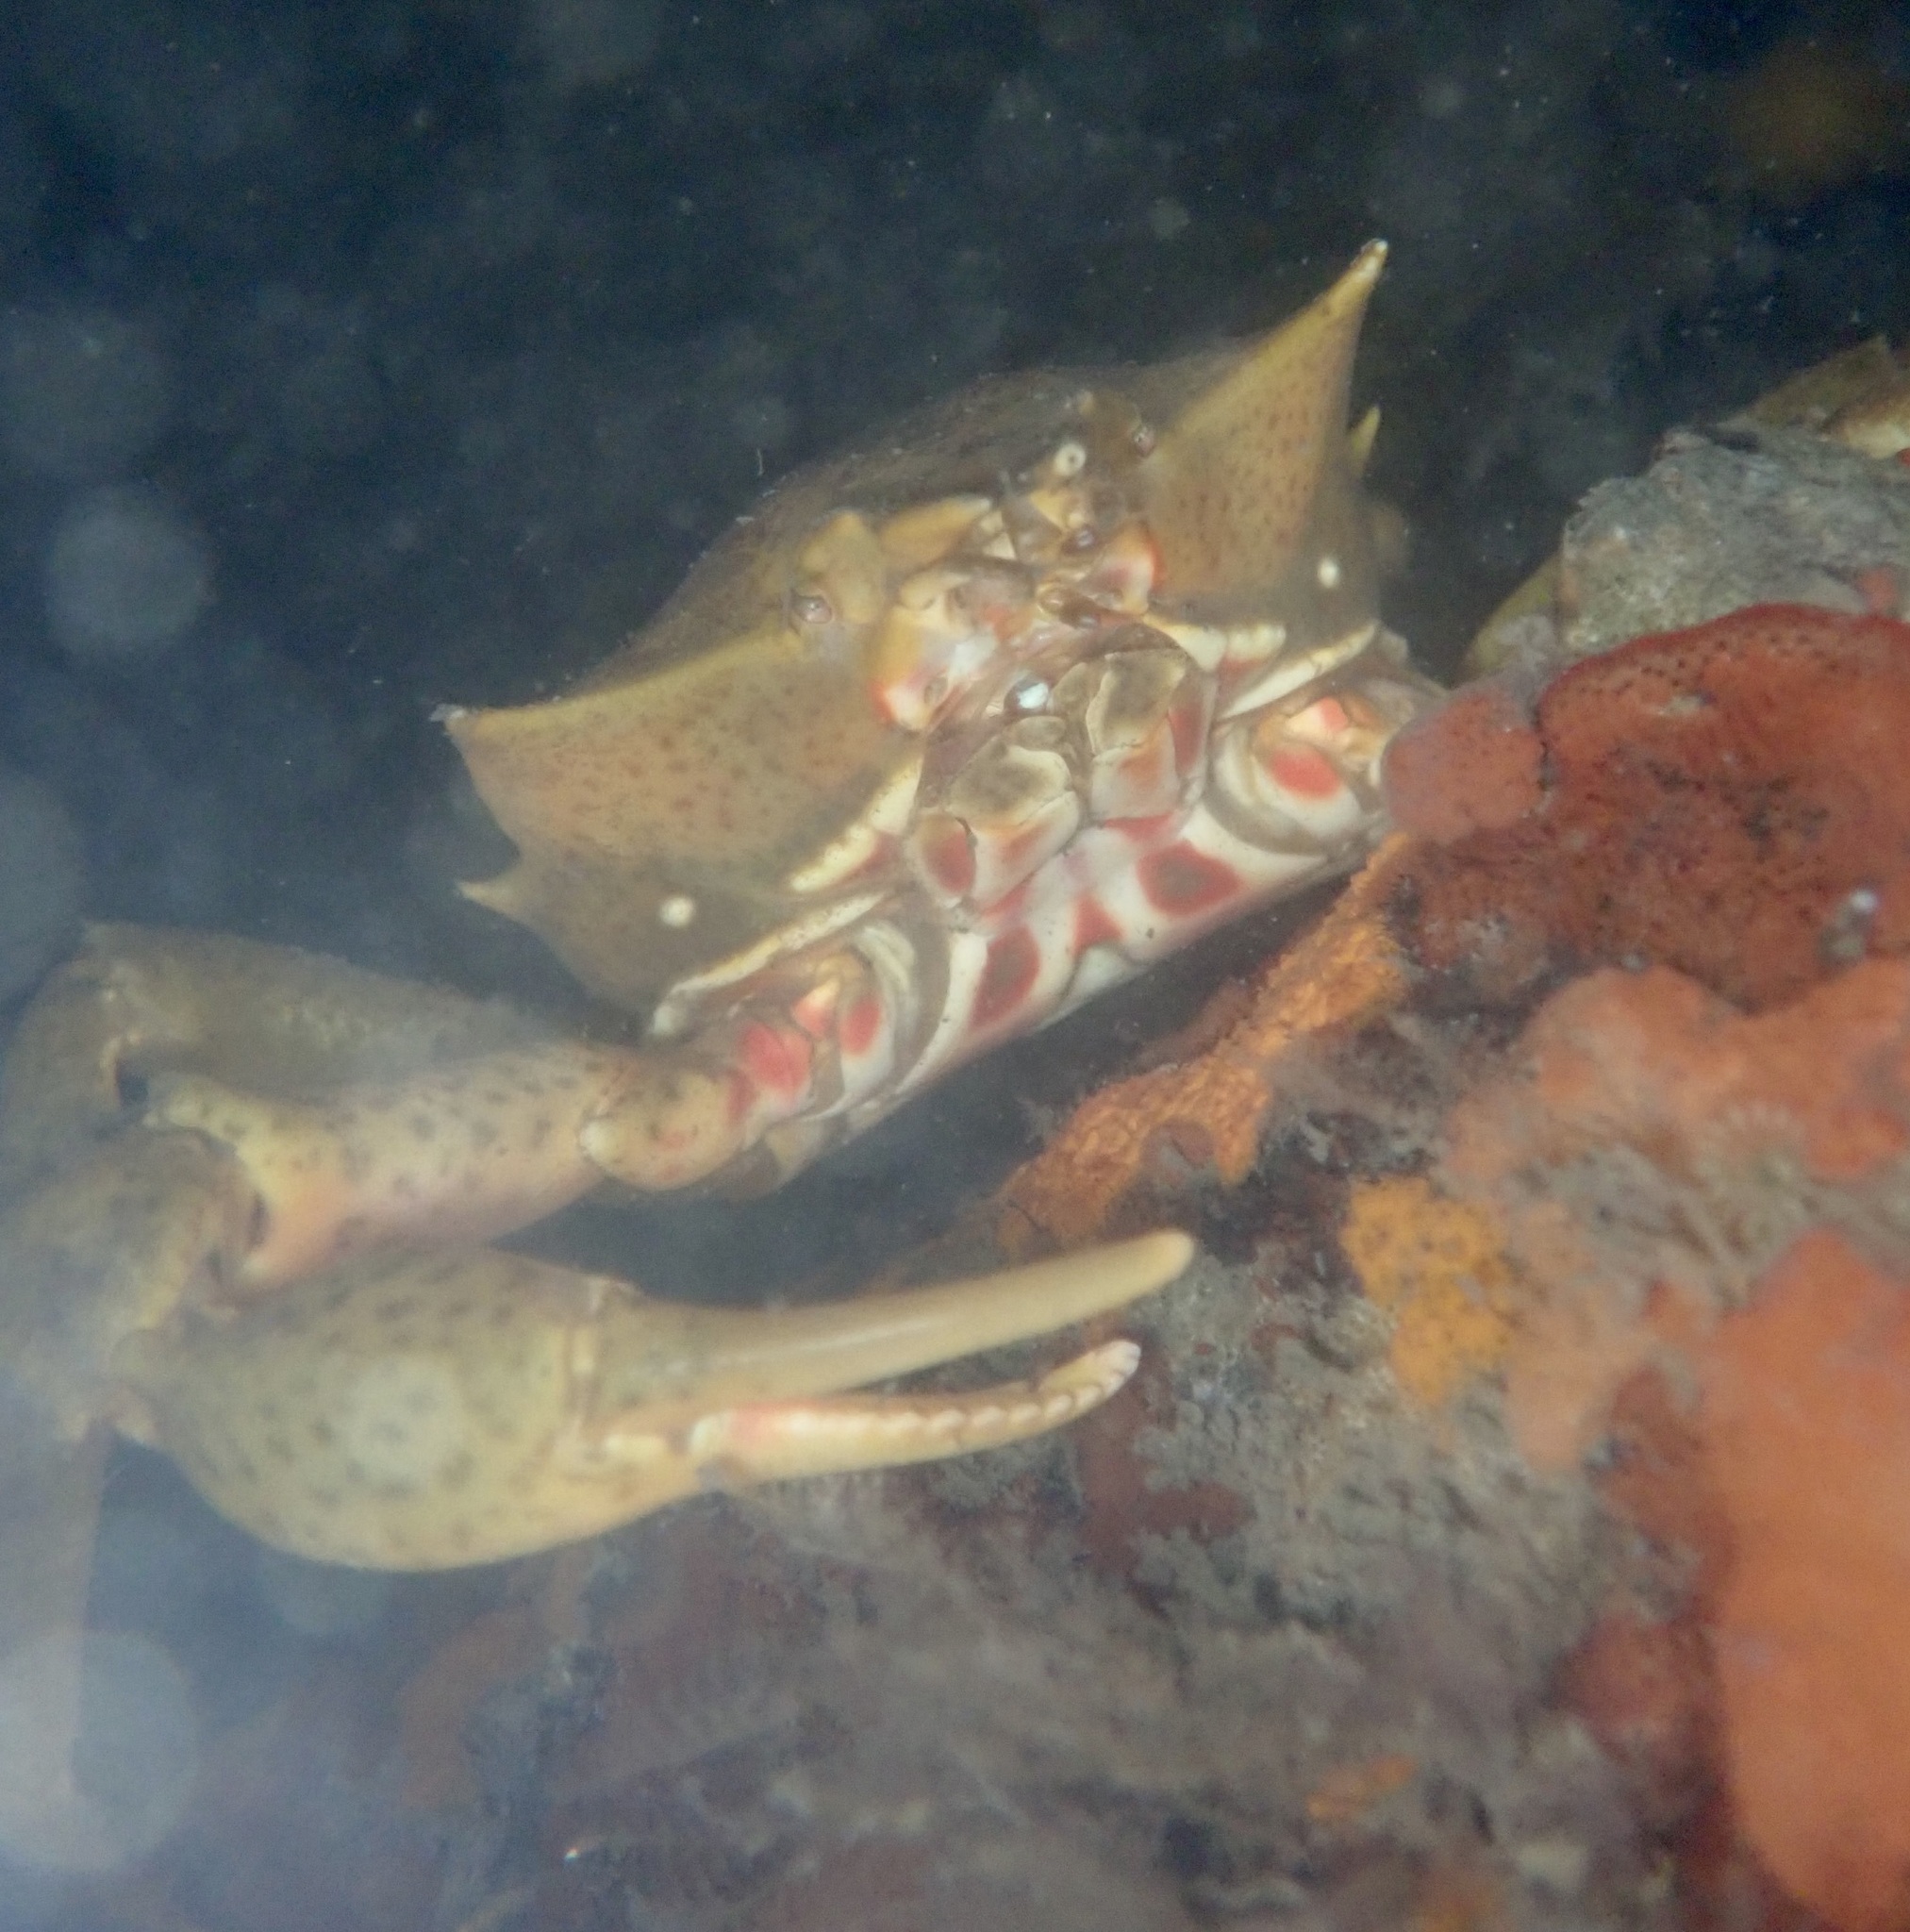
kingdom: Animalia
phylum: Arthropoda
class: Malacostraca
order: Decapoda
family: Epialtidae
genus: Pugettia
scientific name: Pugettia producta
